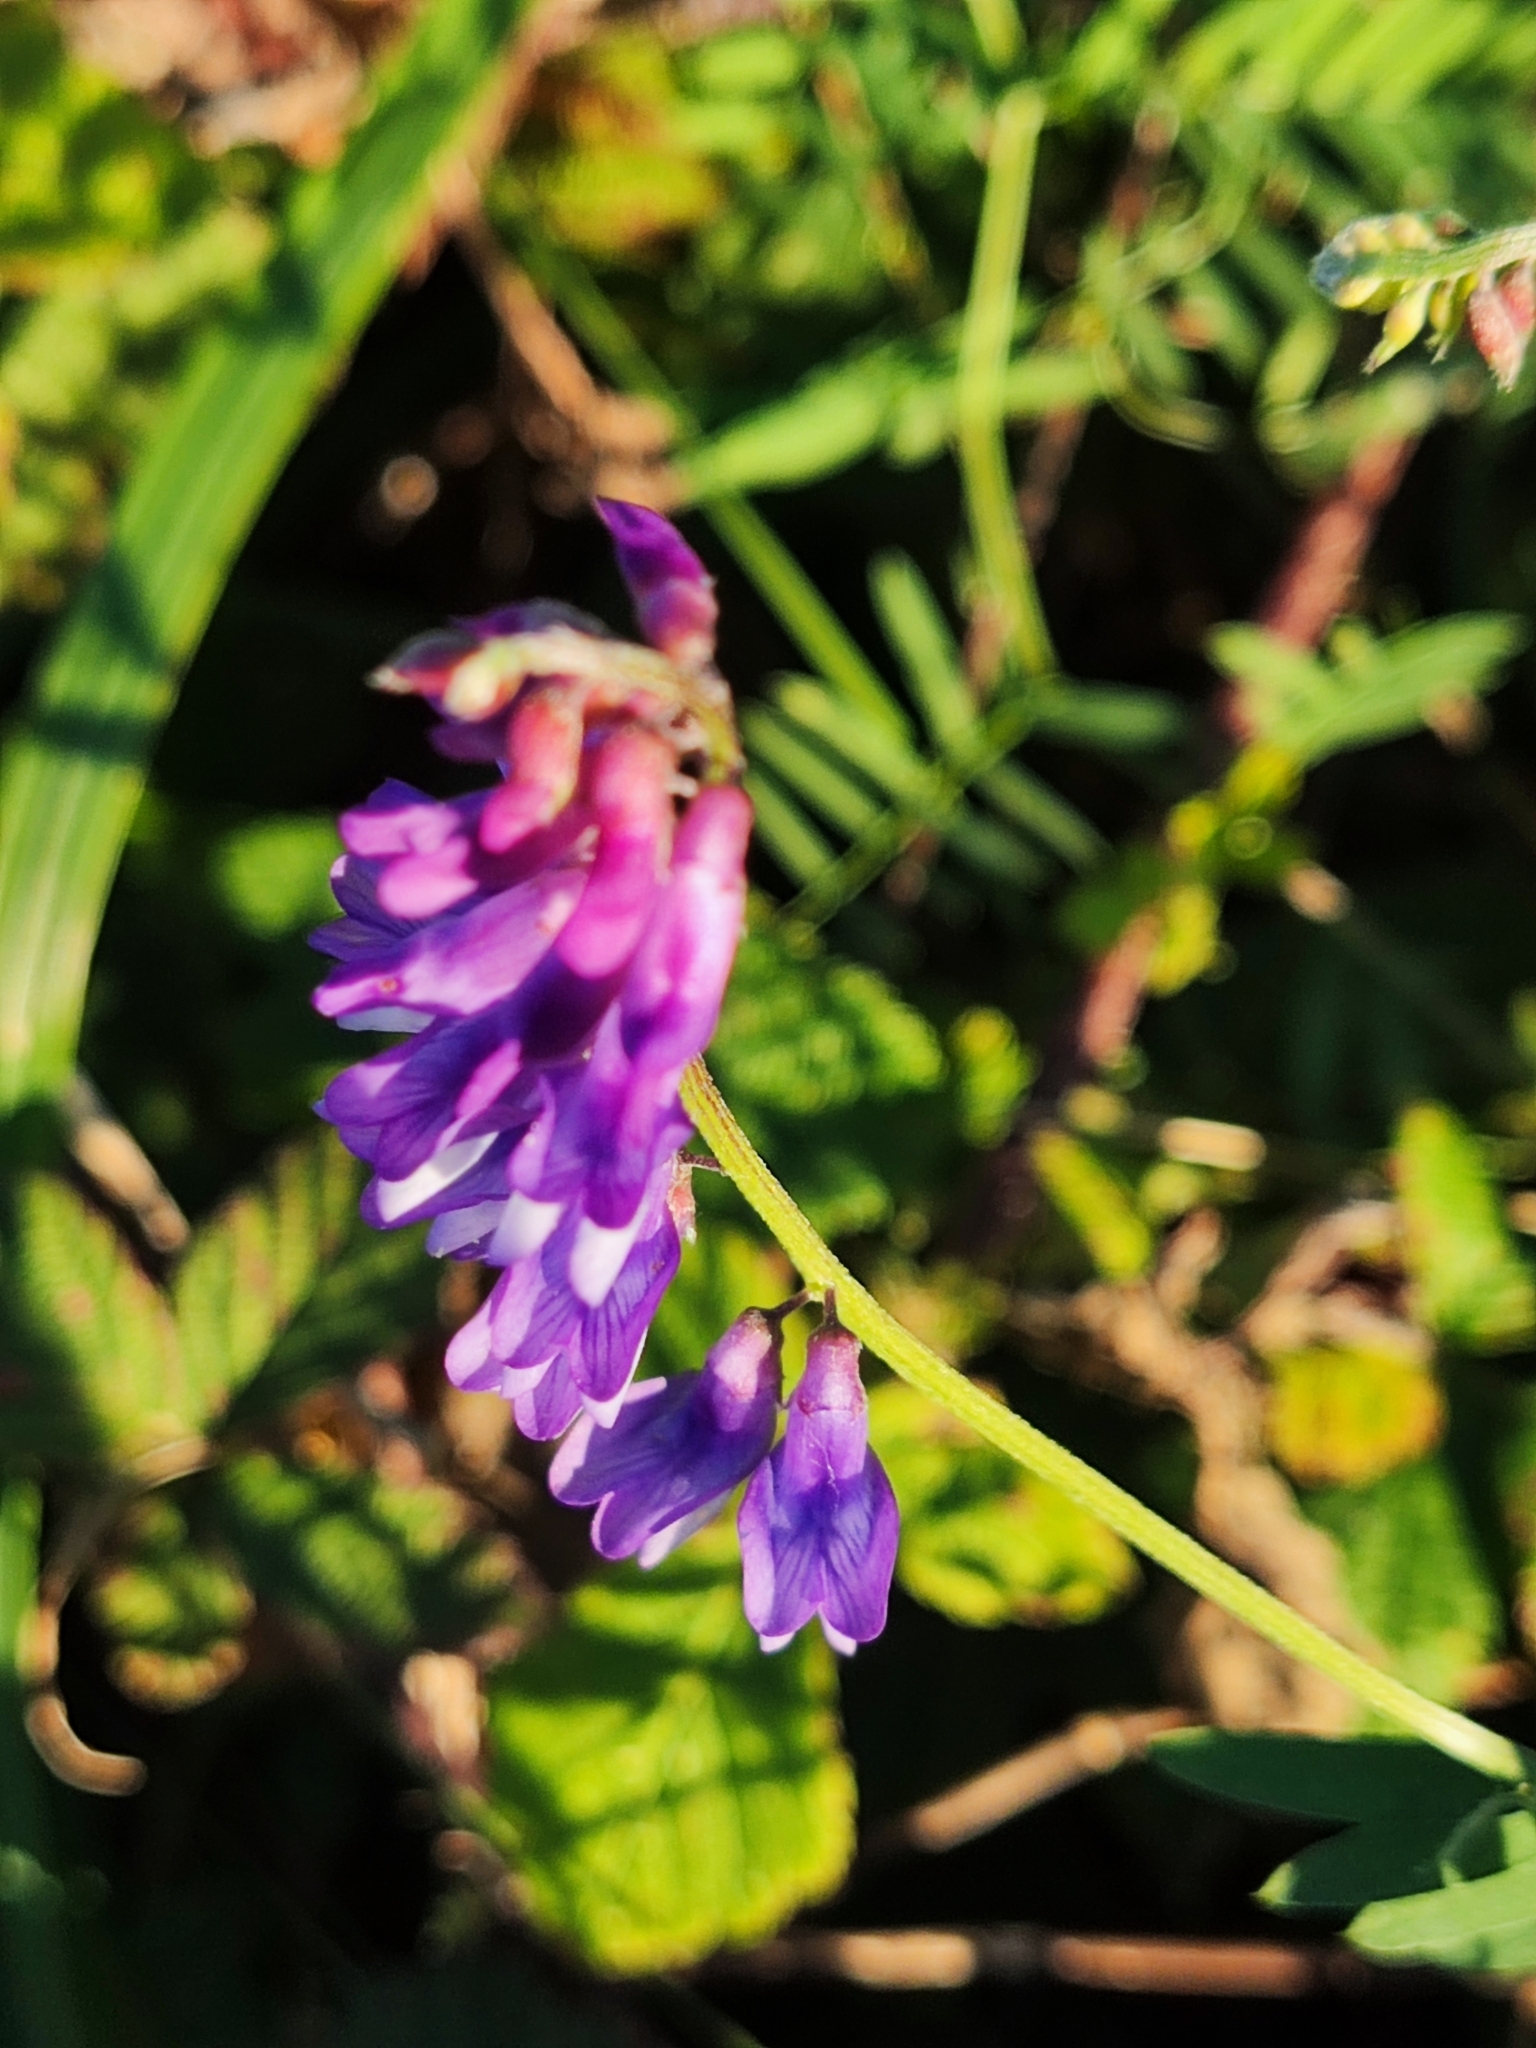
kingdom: Plantae
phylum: Tracheophyta
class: Magnoliopsida
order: Fabales
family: Fabaceae
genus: Vicia
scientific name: Vicia cracca
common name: Bird vetch
